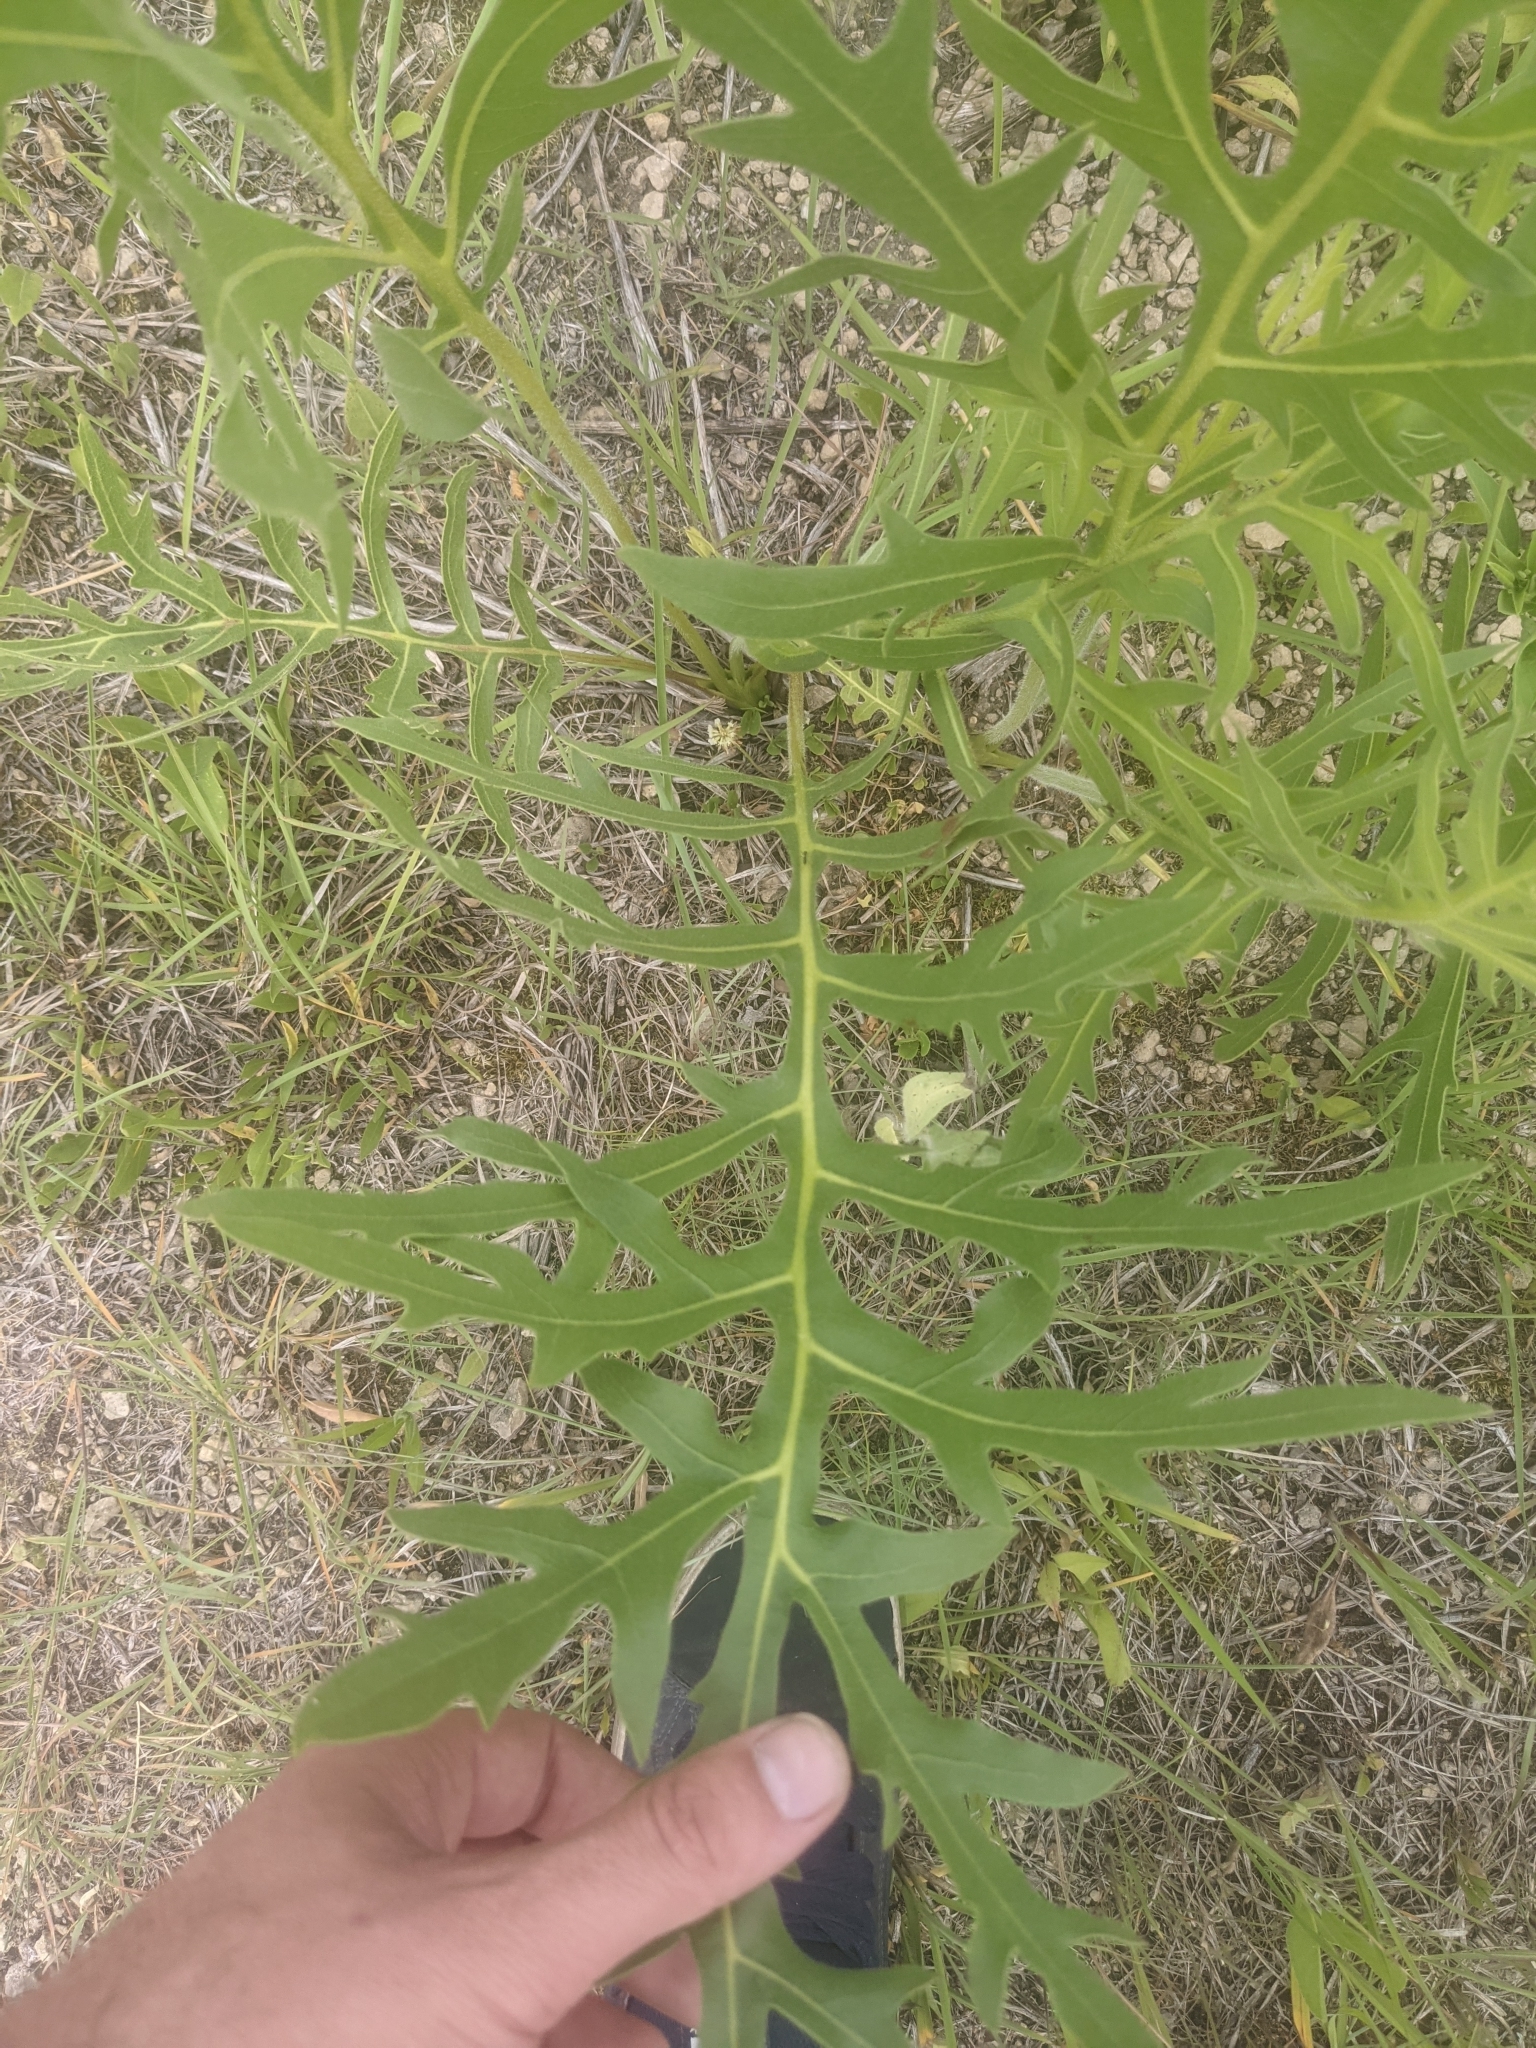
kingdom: Plantae
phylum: Tracheophyta
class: Magnoliopsida
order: Asterales
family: Asteraceae
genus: Silphium
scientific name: Silphium laciniatum
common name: Polarplant
